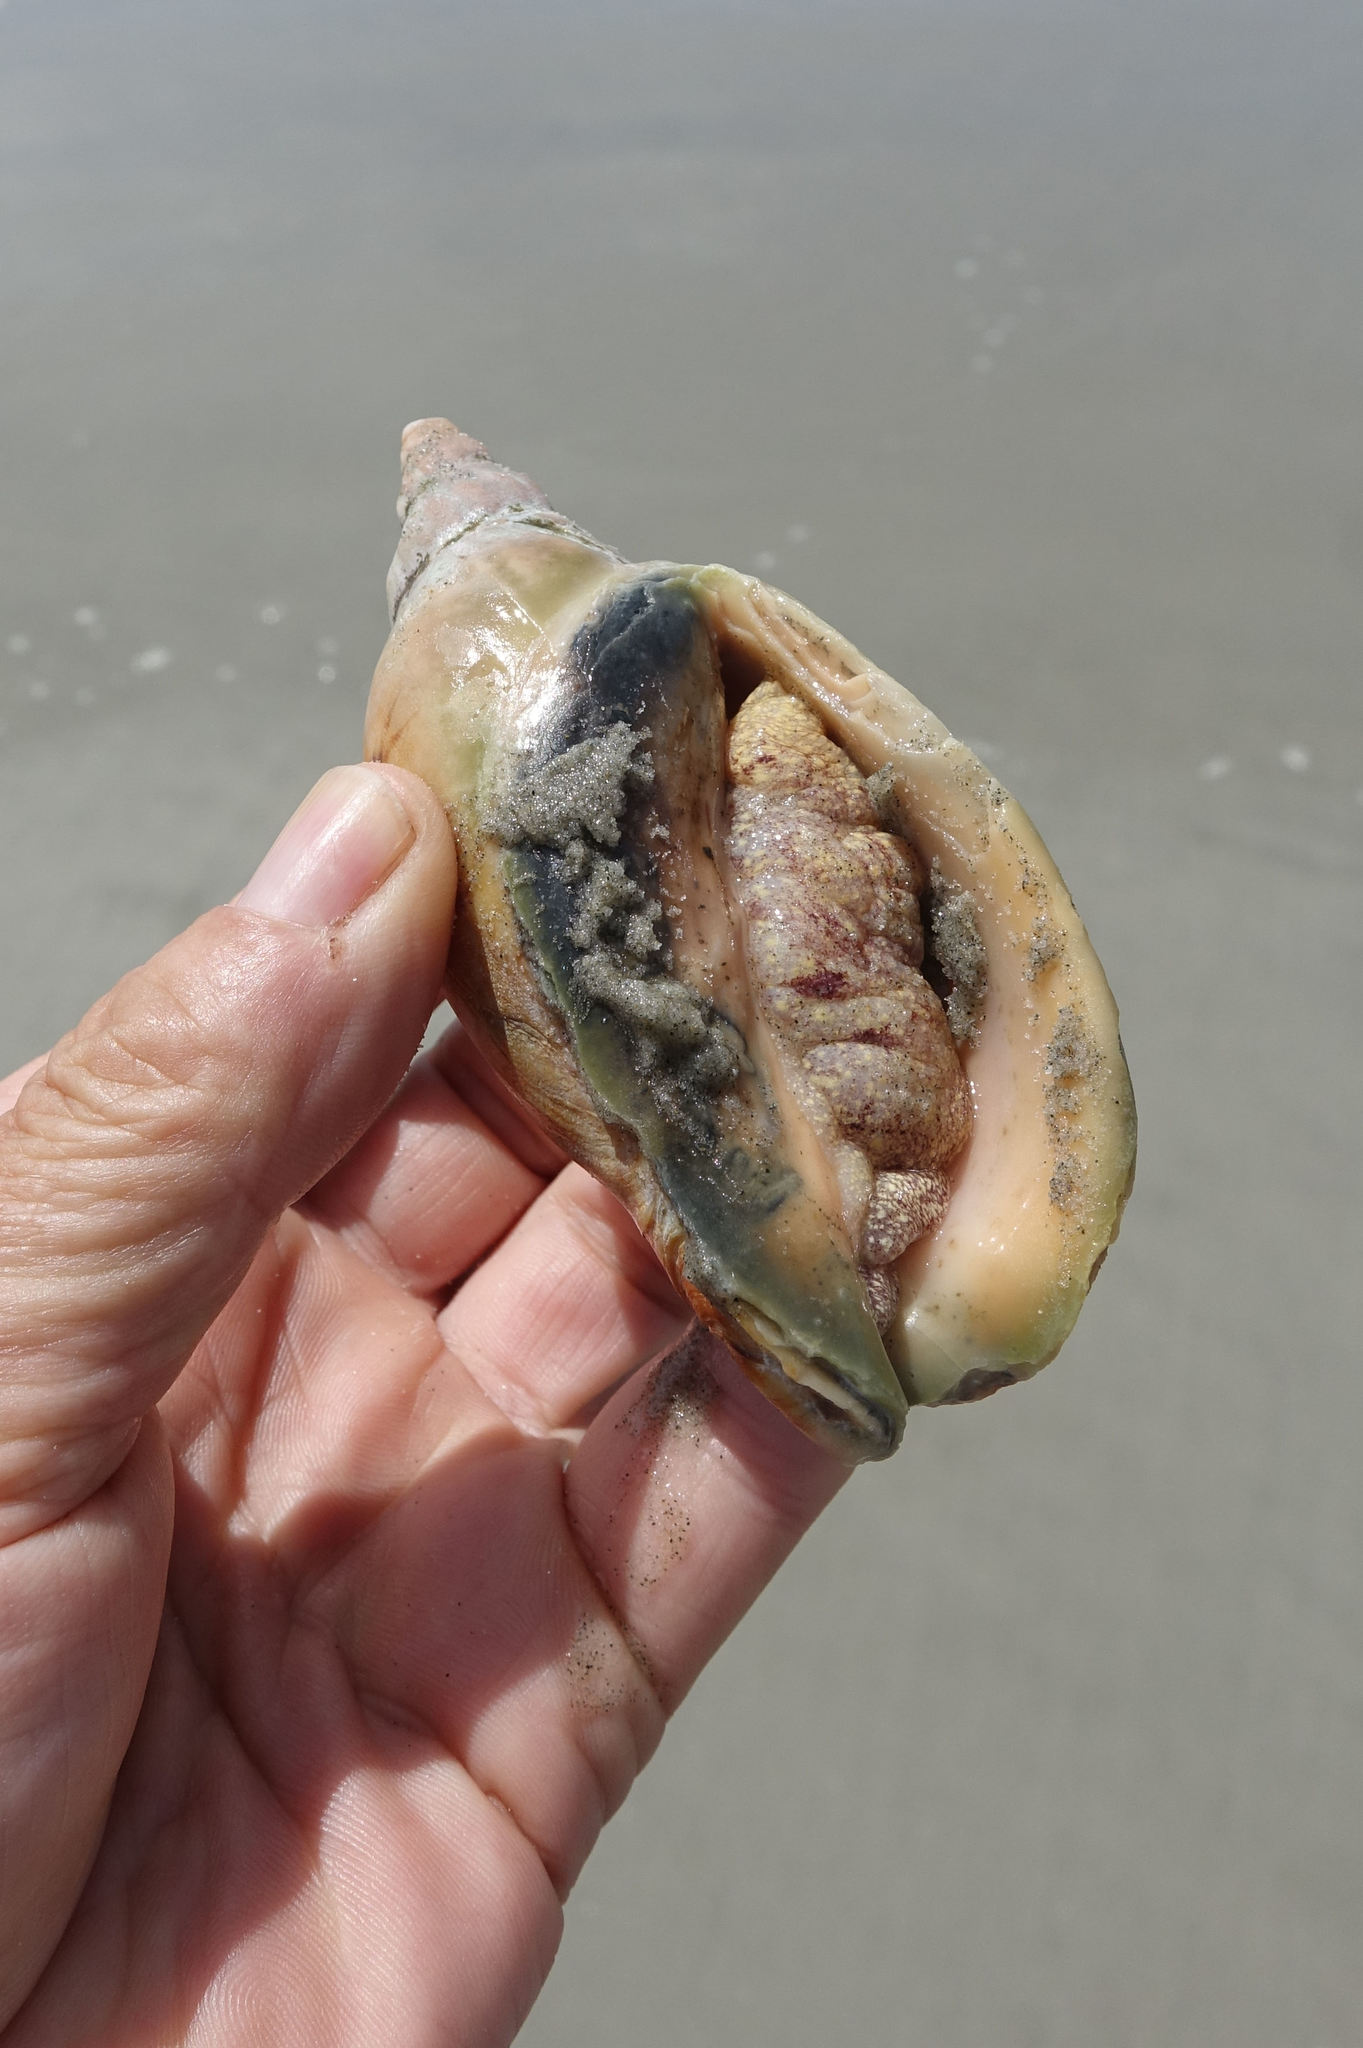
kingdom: Animalia
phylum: Mollusca
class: Gastropoda
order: Neogastropoda
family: Volutidae
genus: Alcithoe
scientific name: Alcithoe arabica
